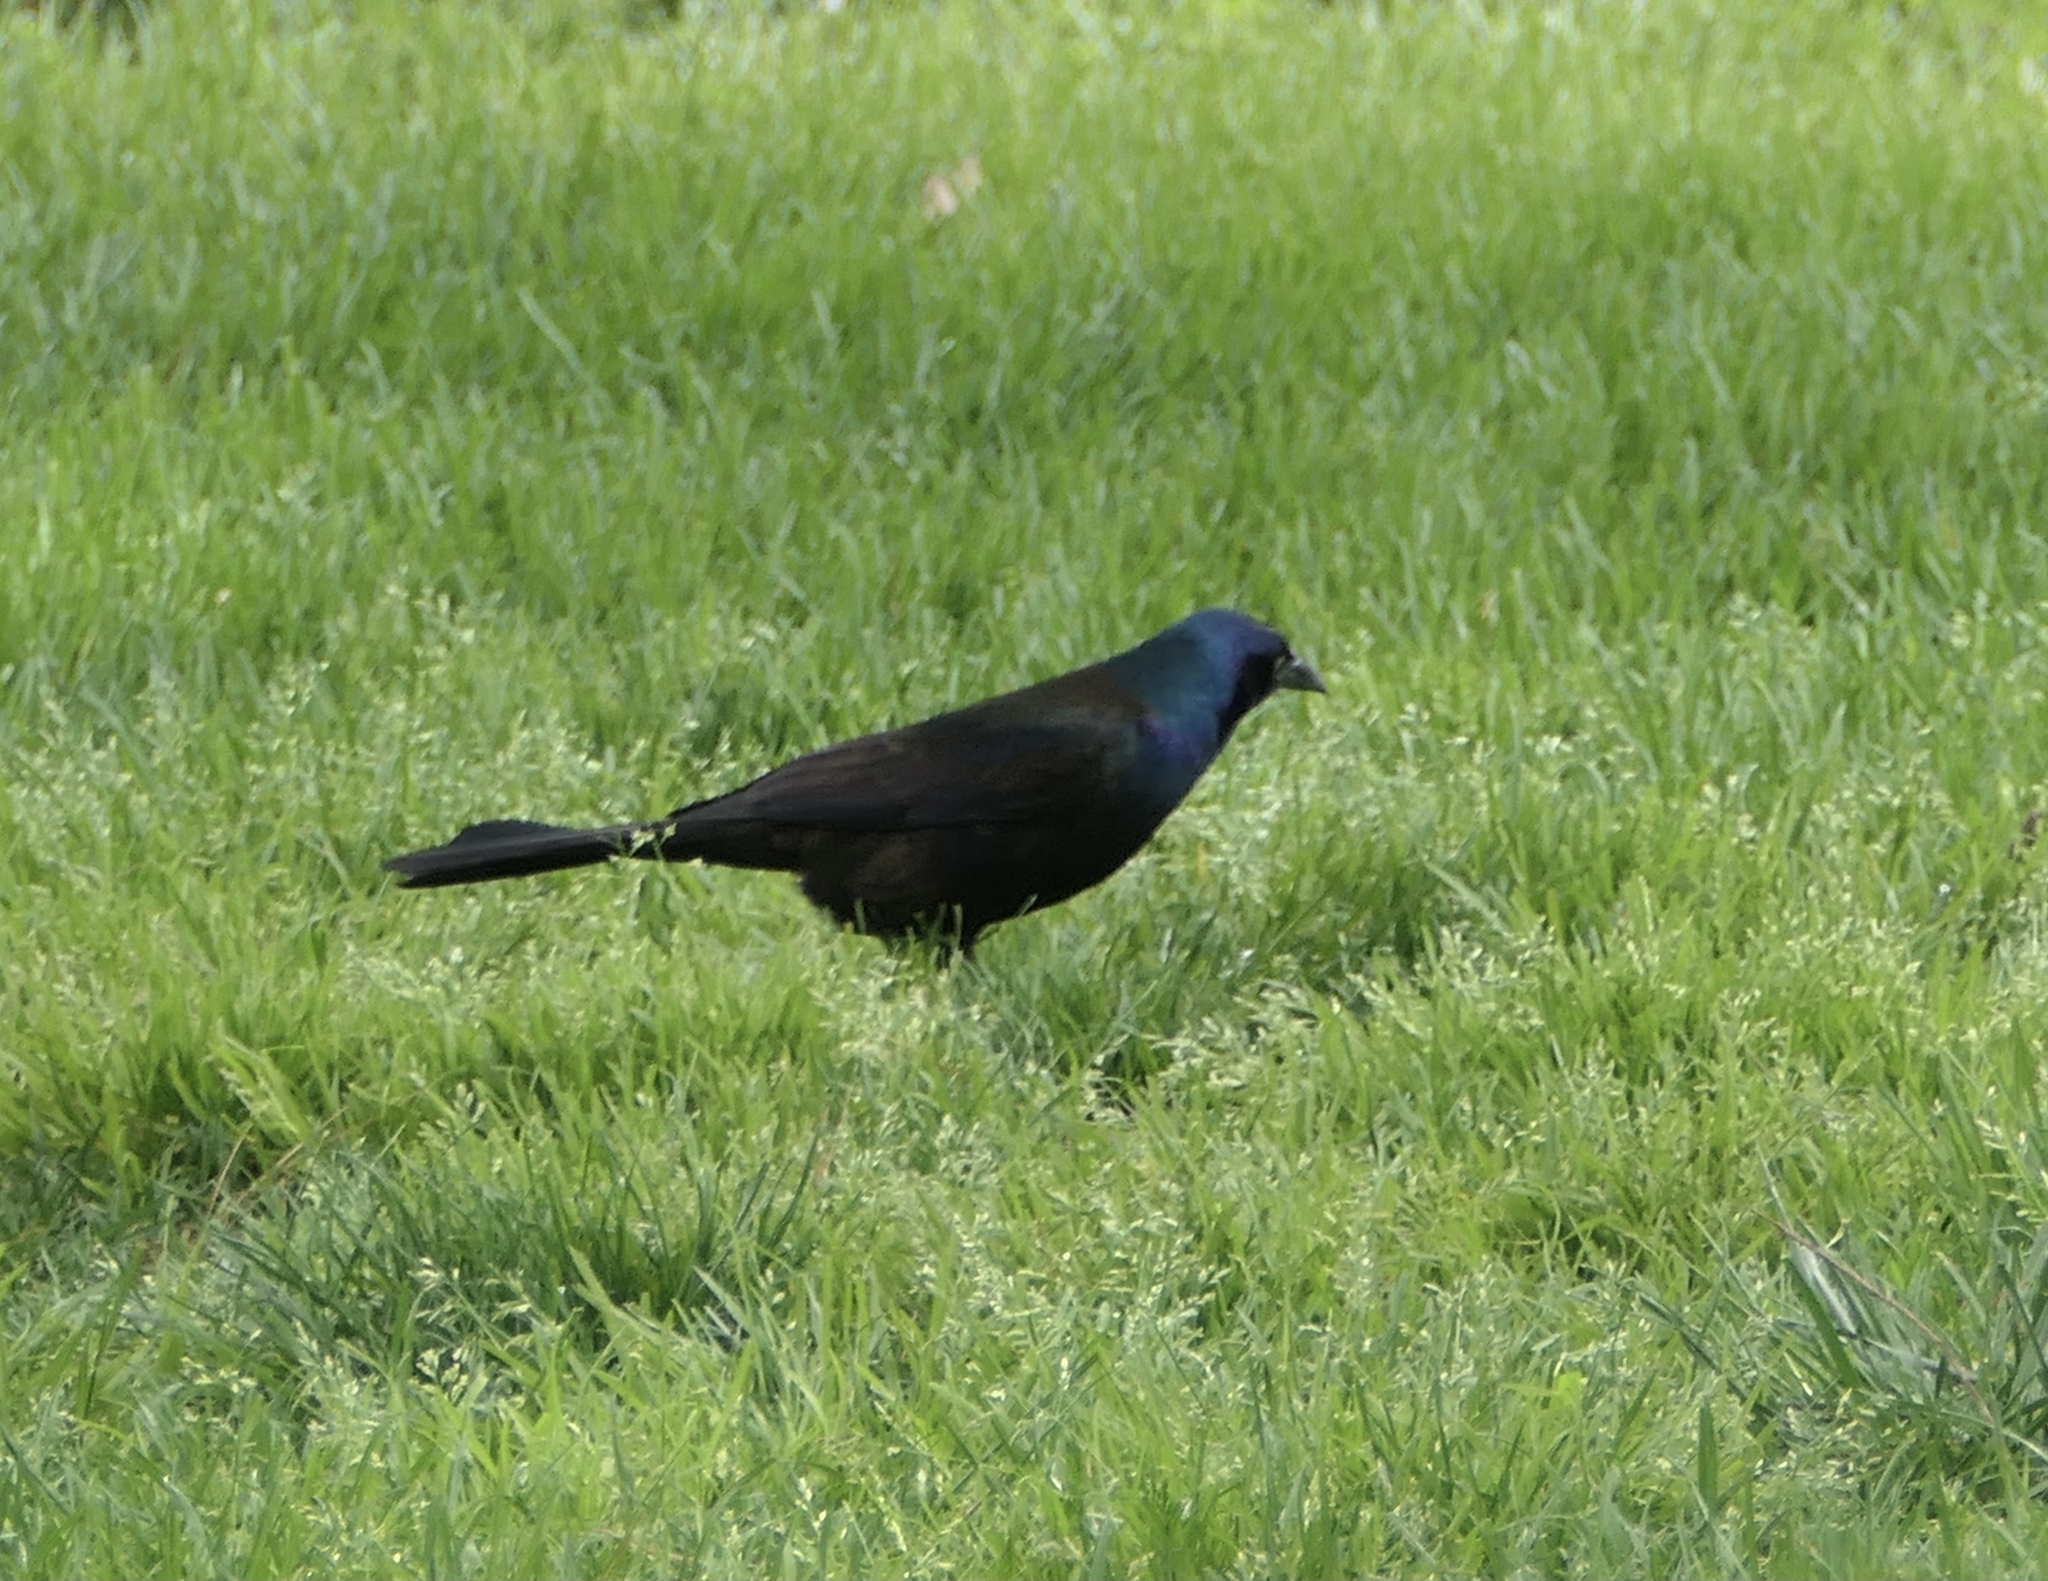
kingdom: Animalia
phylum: Chordata
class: Aves
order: Passeriformes
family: Icteridae
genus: Quiscalus
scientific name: Quiscalus quiscula
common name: Common grackle
